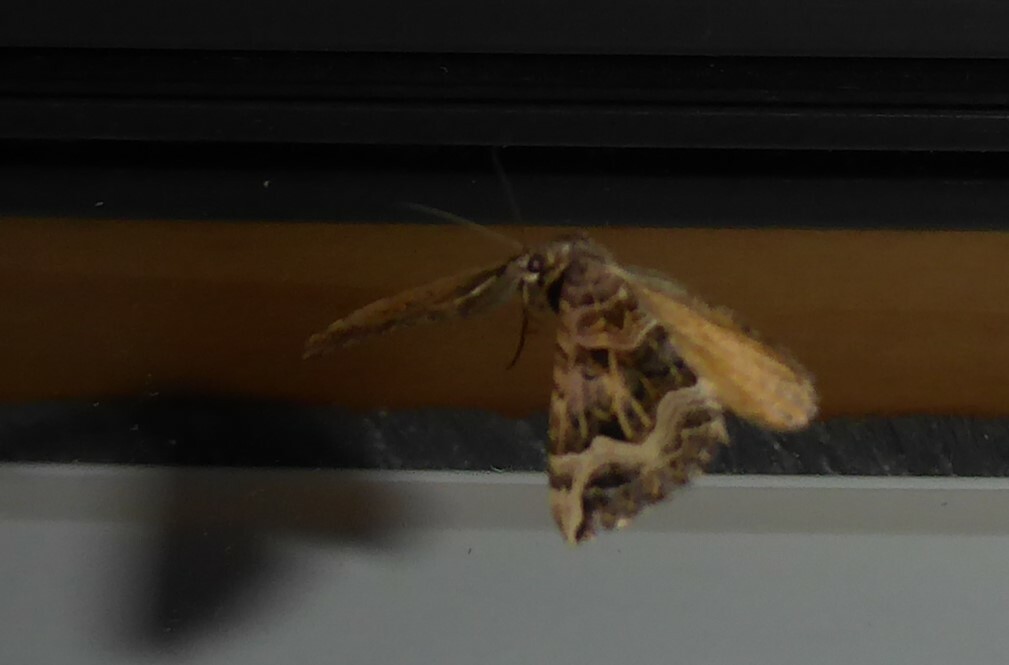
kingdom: Animalia
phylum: Arthropoda
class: Insecta
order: Lepidoptera
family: Geometridae
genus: Xanthorhoe
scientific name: Xanthorhoe semifissata
